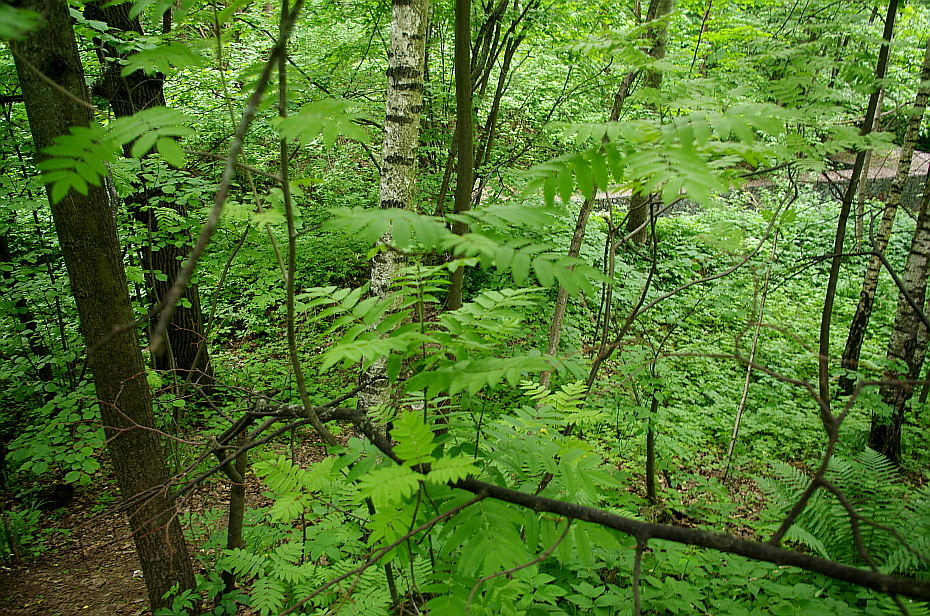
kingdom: Plantae
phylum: Tracheophyta
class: Magnoliopsida
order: Rosales
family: Rosaceae
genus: Sorbus
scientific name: Sorbus aucuparia
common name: Rowan
